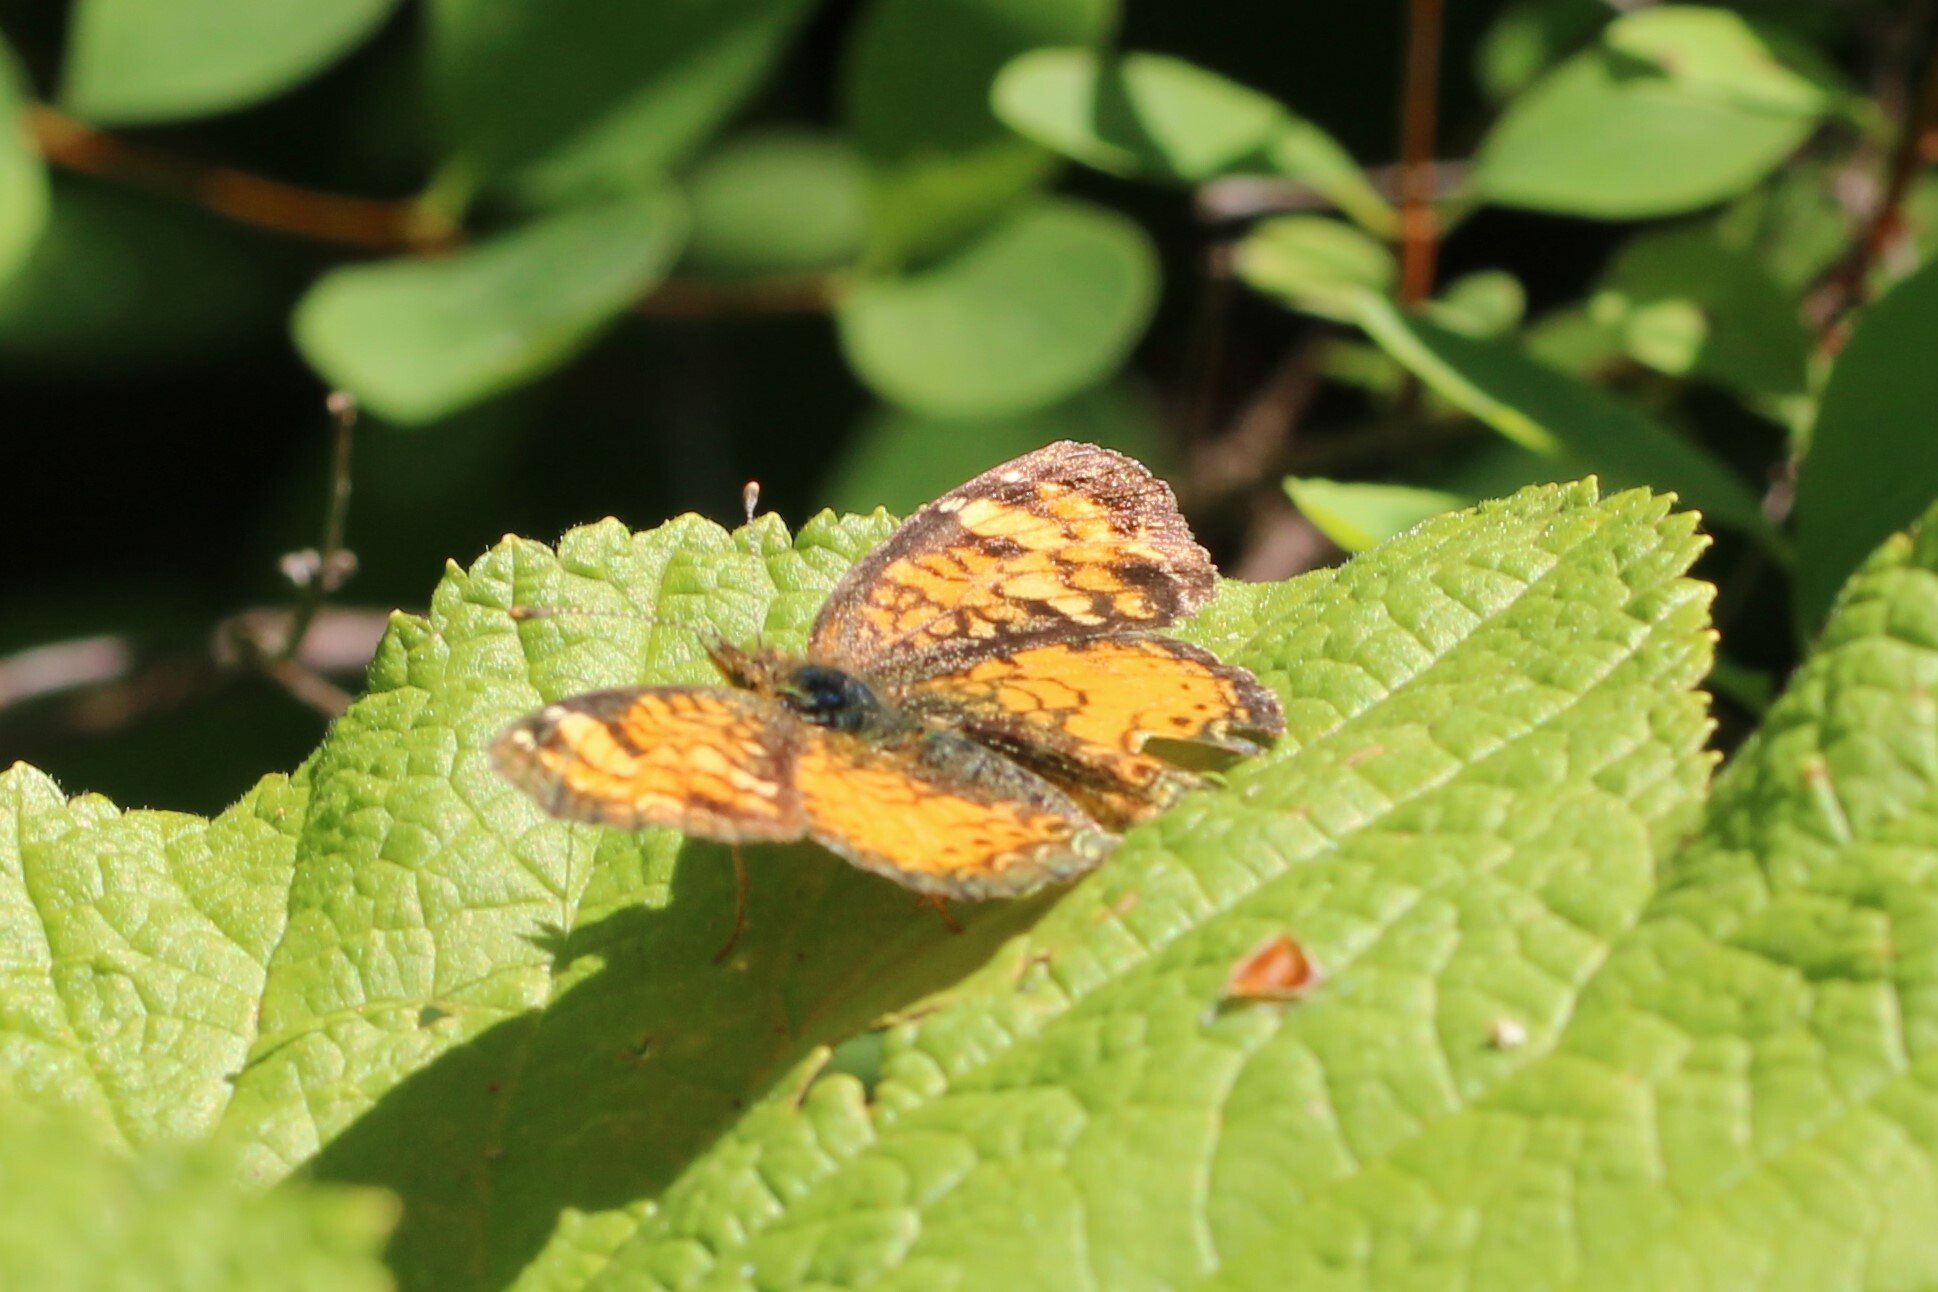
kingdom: Animalia
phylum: Arthropoda
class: Insecta
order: Lepidoptera
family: Nymphalidae
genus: Phyciodes
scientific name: Phyciodes tharos
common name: Pearl crescent
